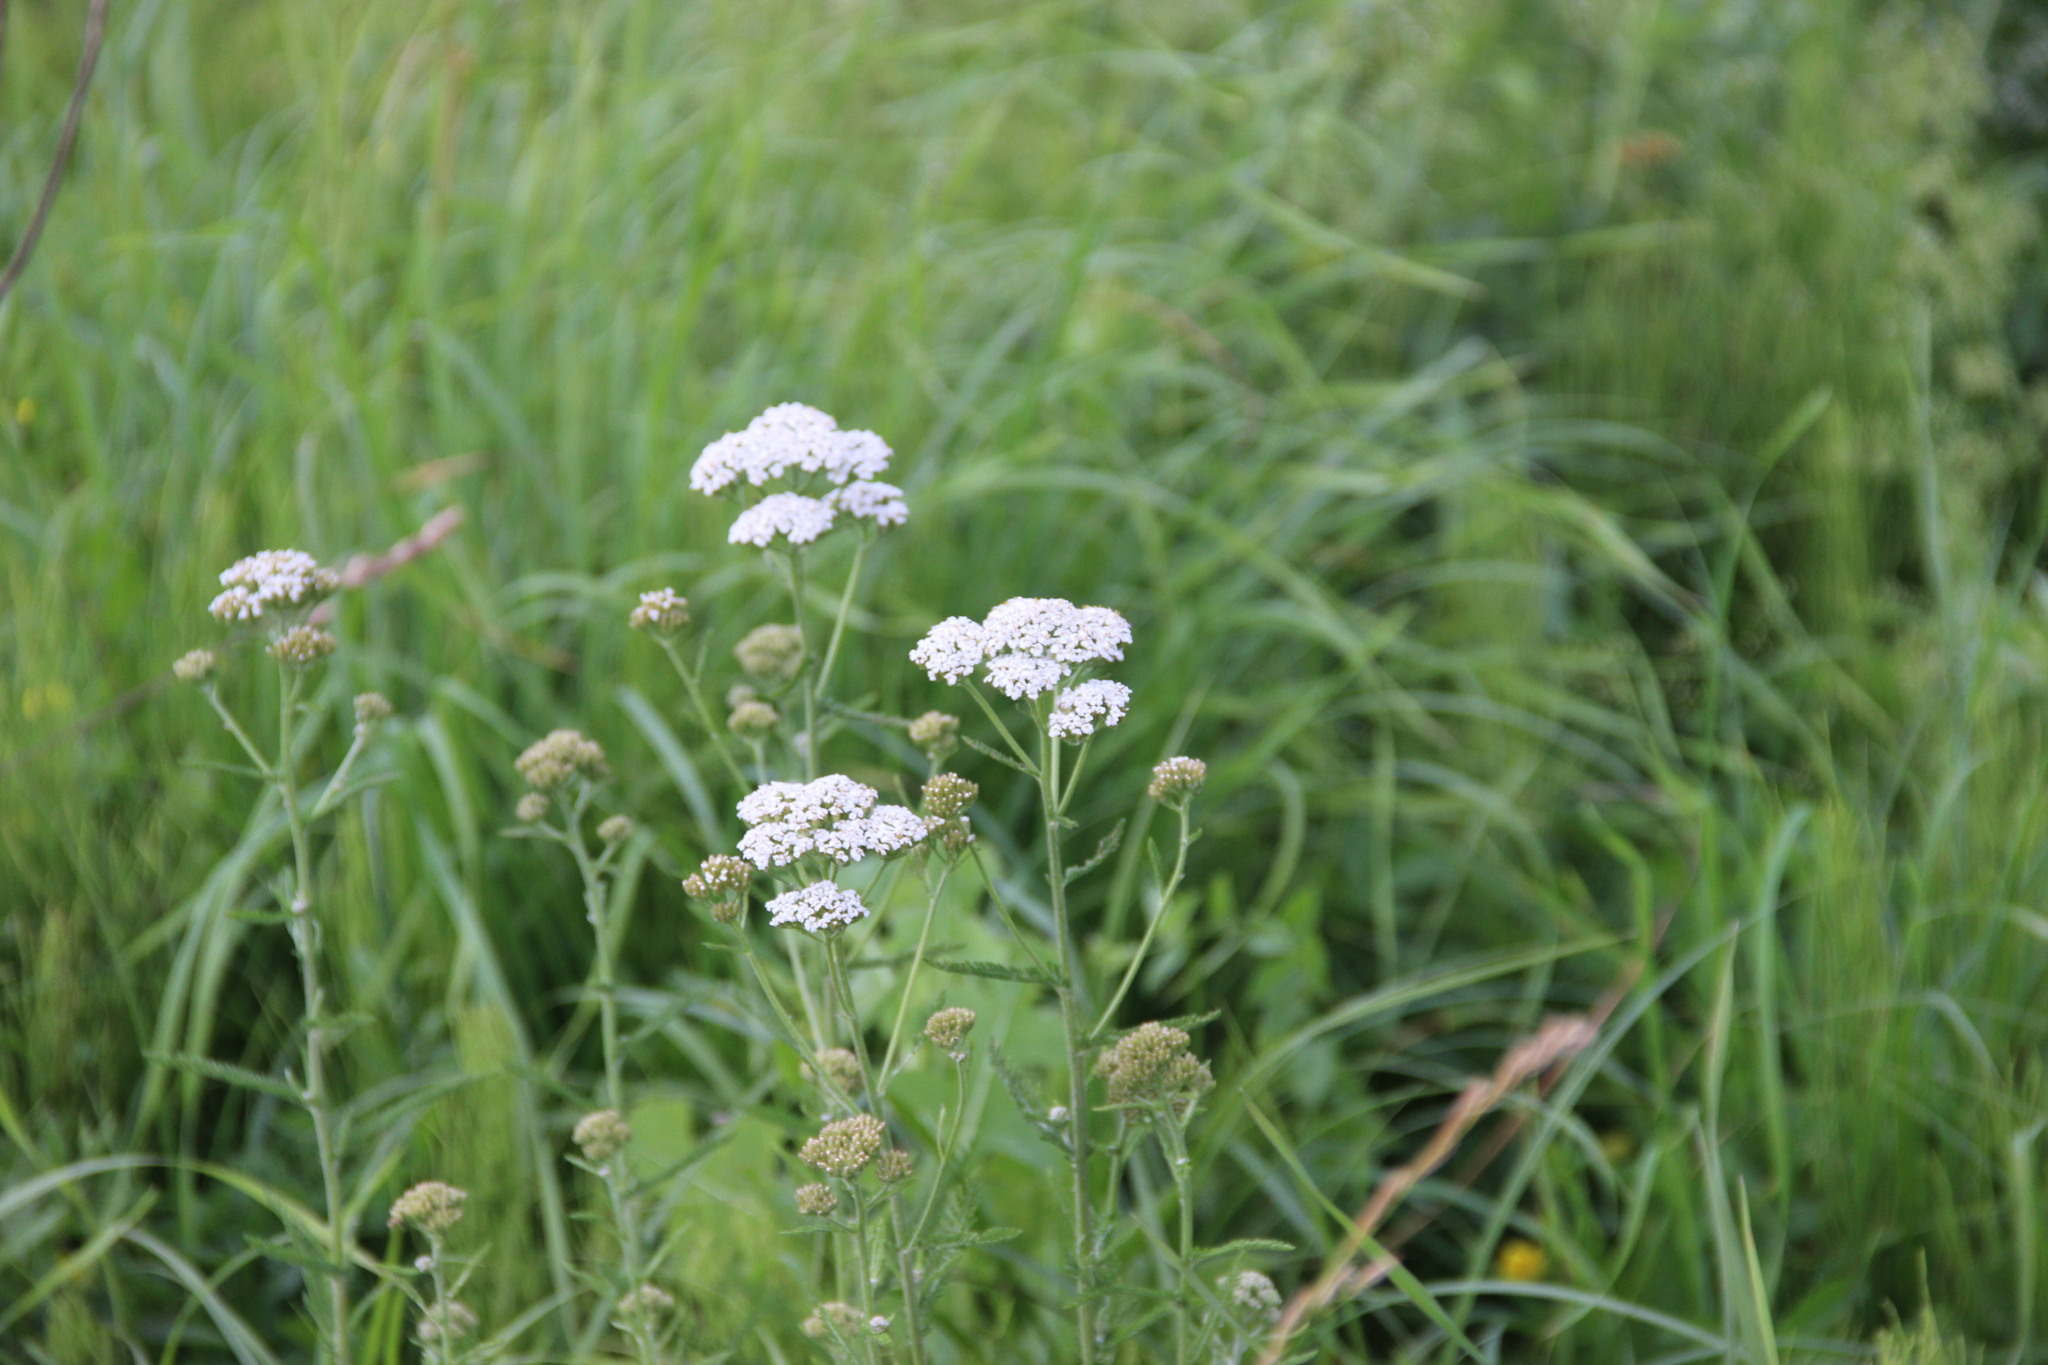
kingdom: Plantae
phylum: Tracheophyta
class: Magnoliopsida
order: Asterales
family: Asteraceae
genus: Achillea
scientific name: Achillea millefolium
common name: Yarrow
